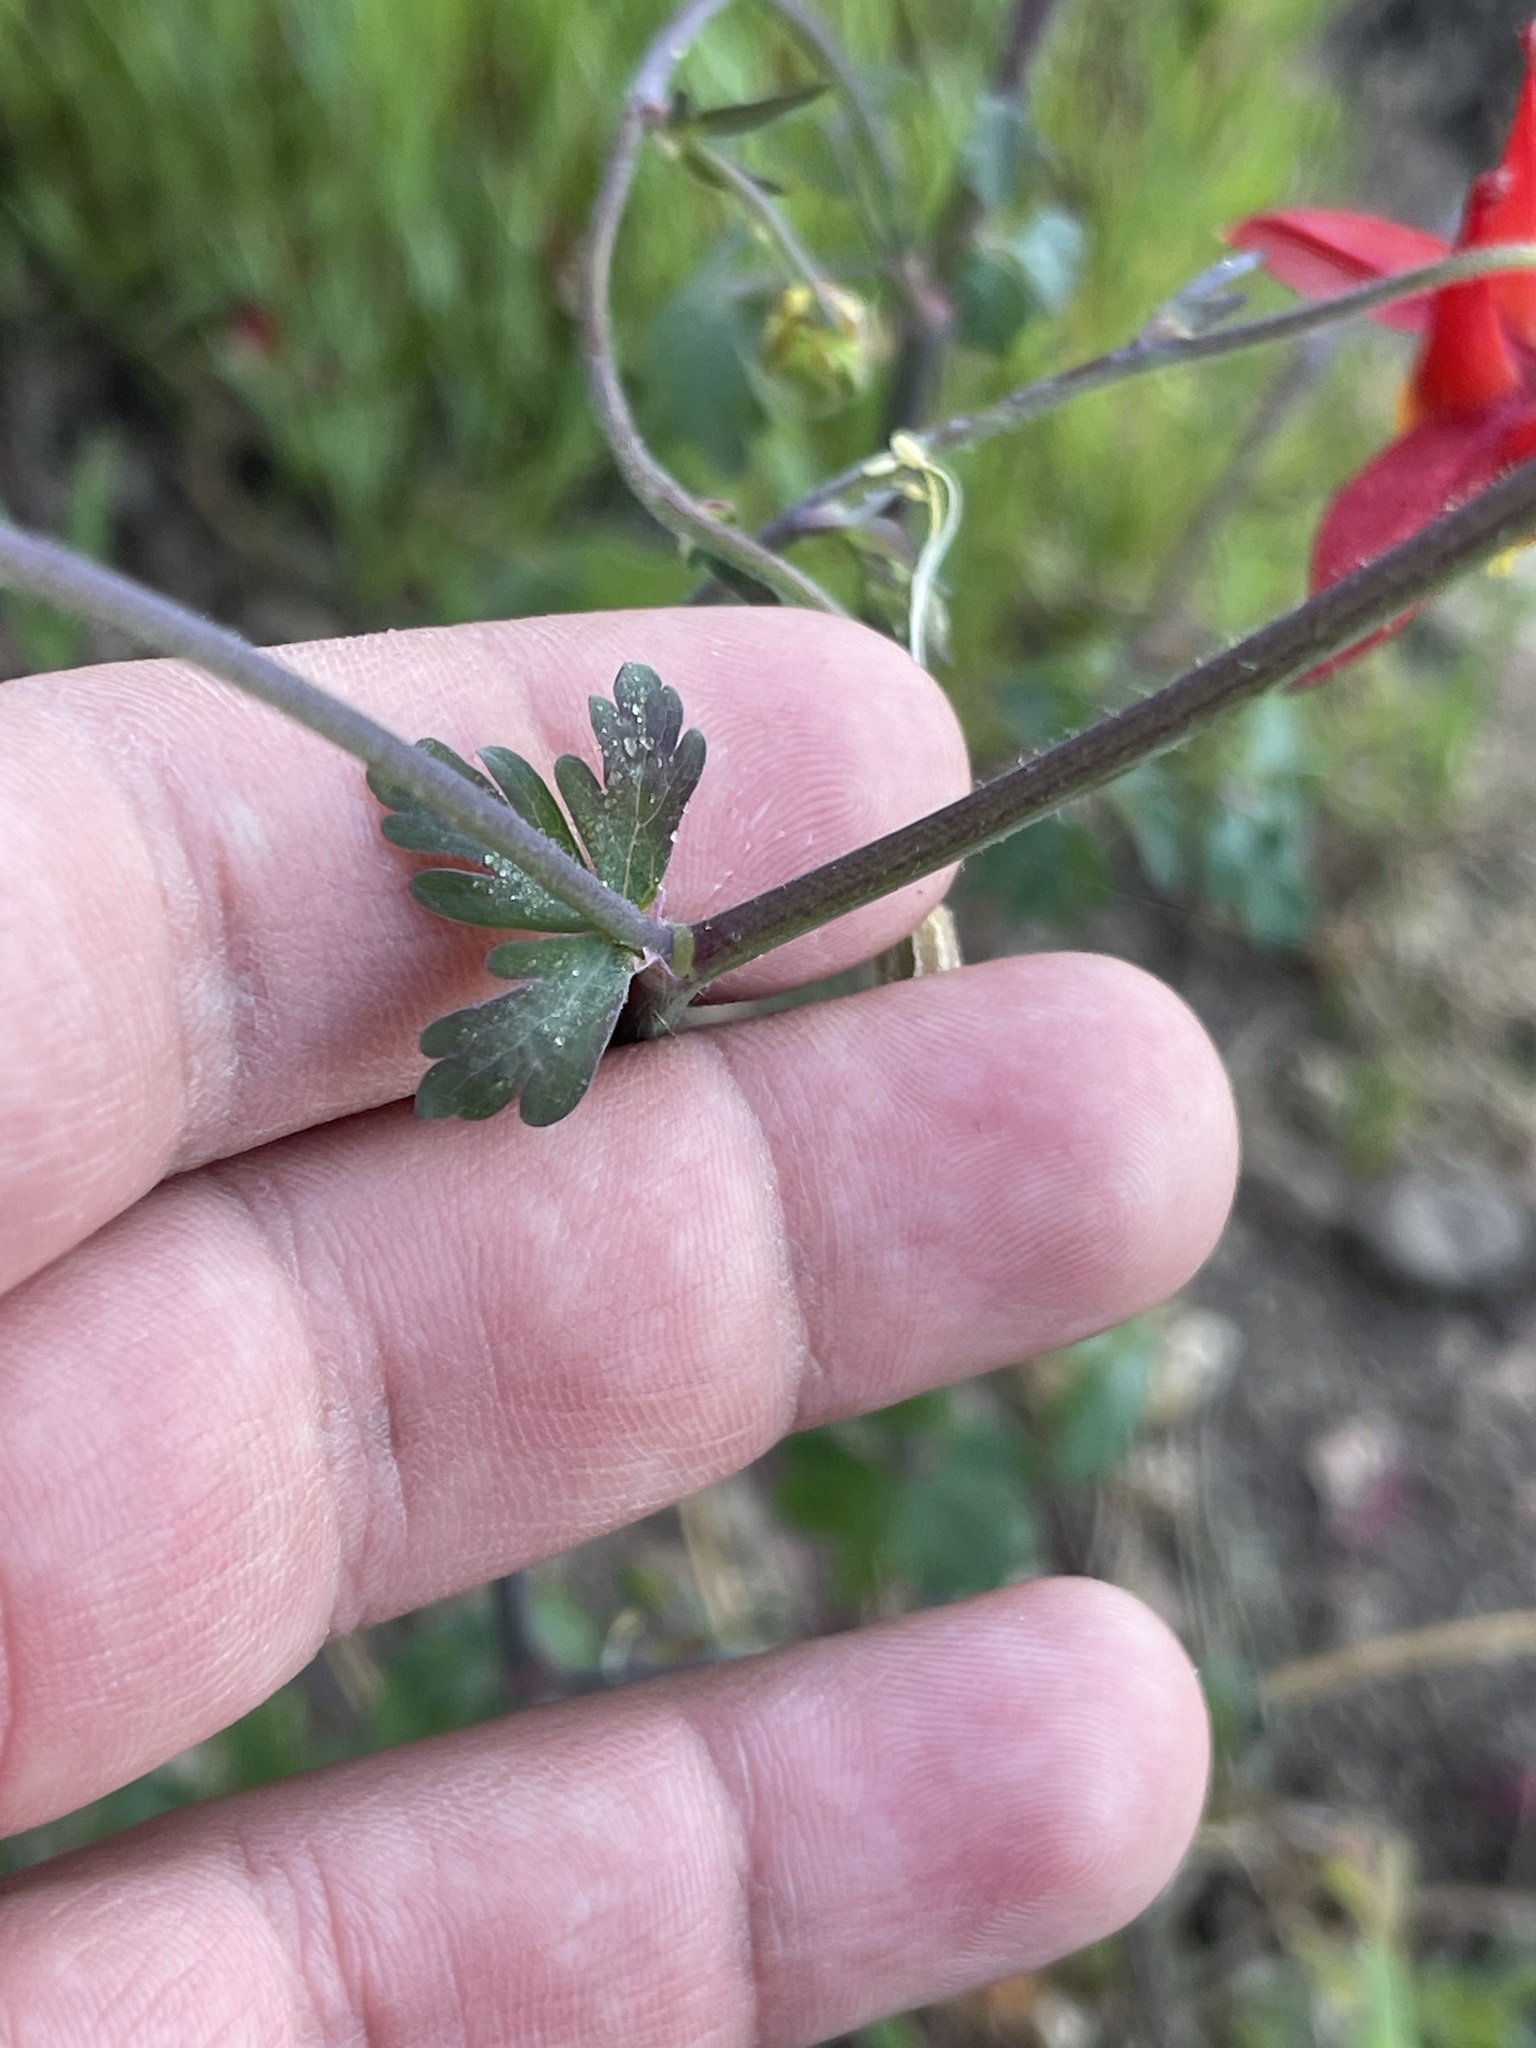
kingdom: Plantae
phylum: Tracheophyta
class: Magnoliopsida
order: Ranunculales
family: Ranunculaceae
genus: Aquilegia
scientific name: Aquilegia formosa
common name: Sitka columbine
